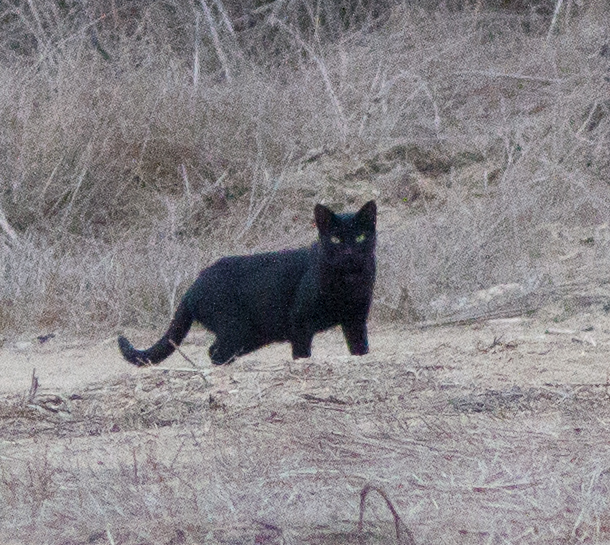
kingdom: Animalia
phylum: Chordata
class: Mammalia
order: Carnivora
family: Felidae
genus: Felis
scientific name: Felis catus
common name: Domestic cat
